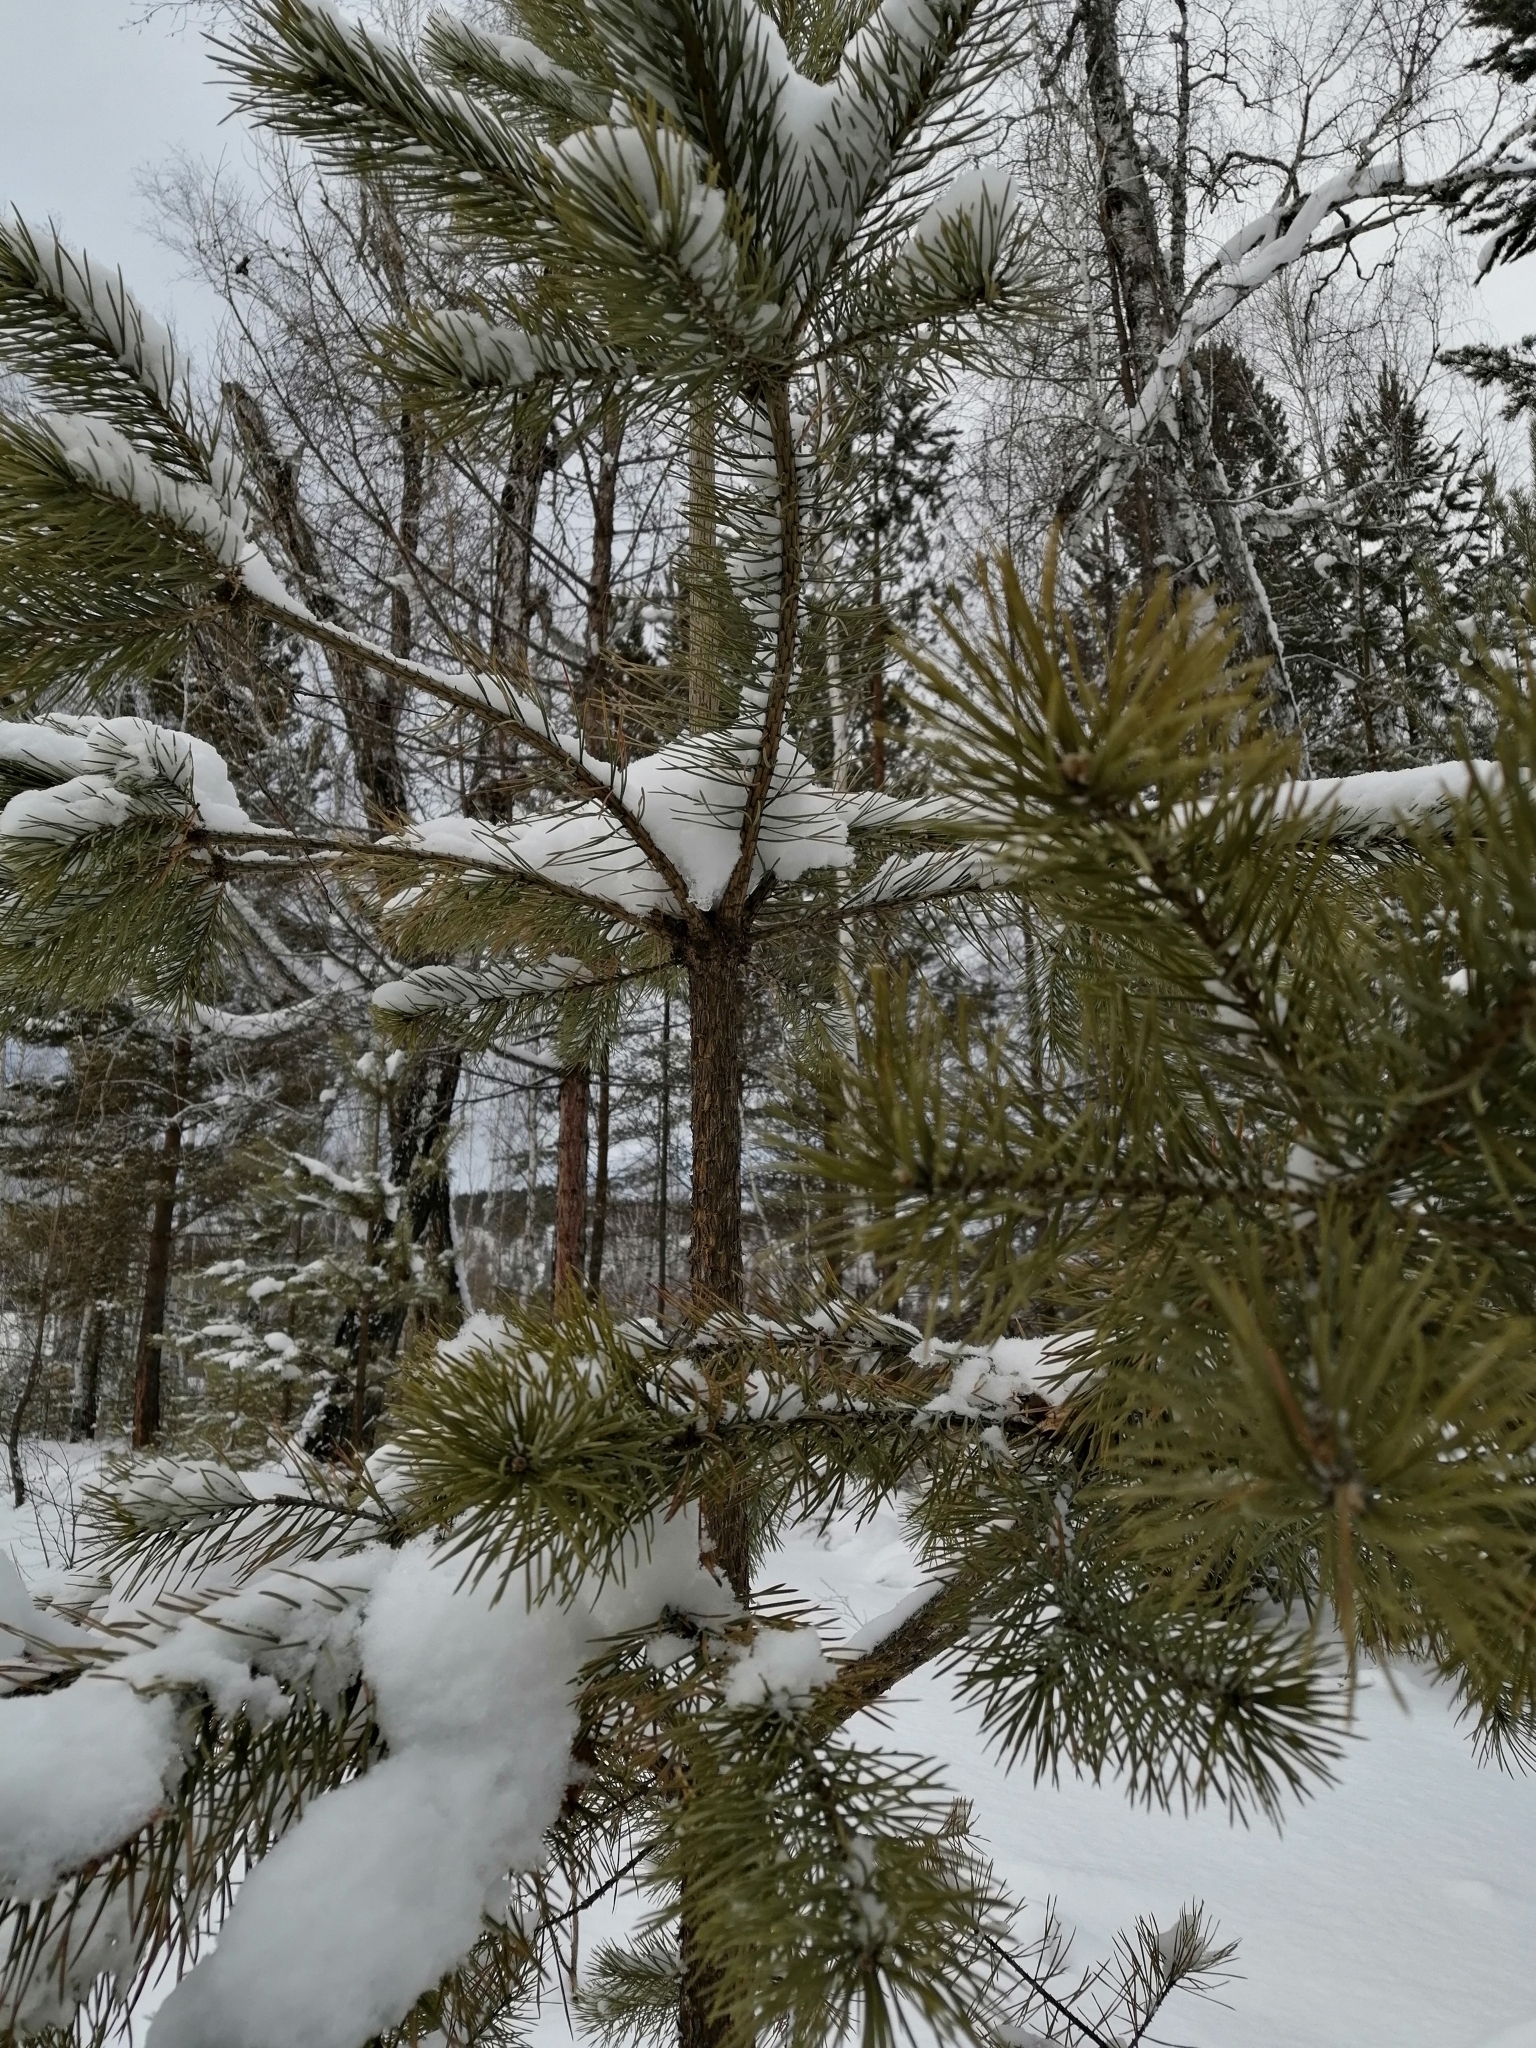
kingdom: Plantae
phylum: Tracheophyta
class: Pinopsida
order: Pinales
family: Pinaceae
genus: Pinus
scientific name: Pinus sylvestris
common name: Scots pine
